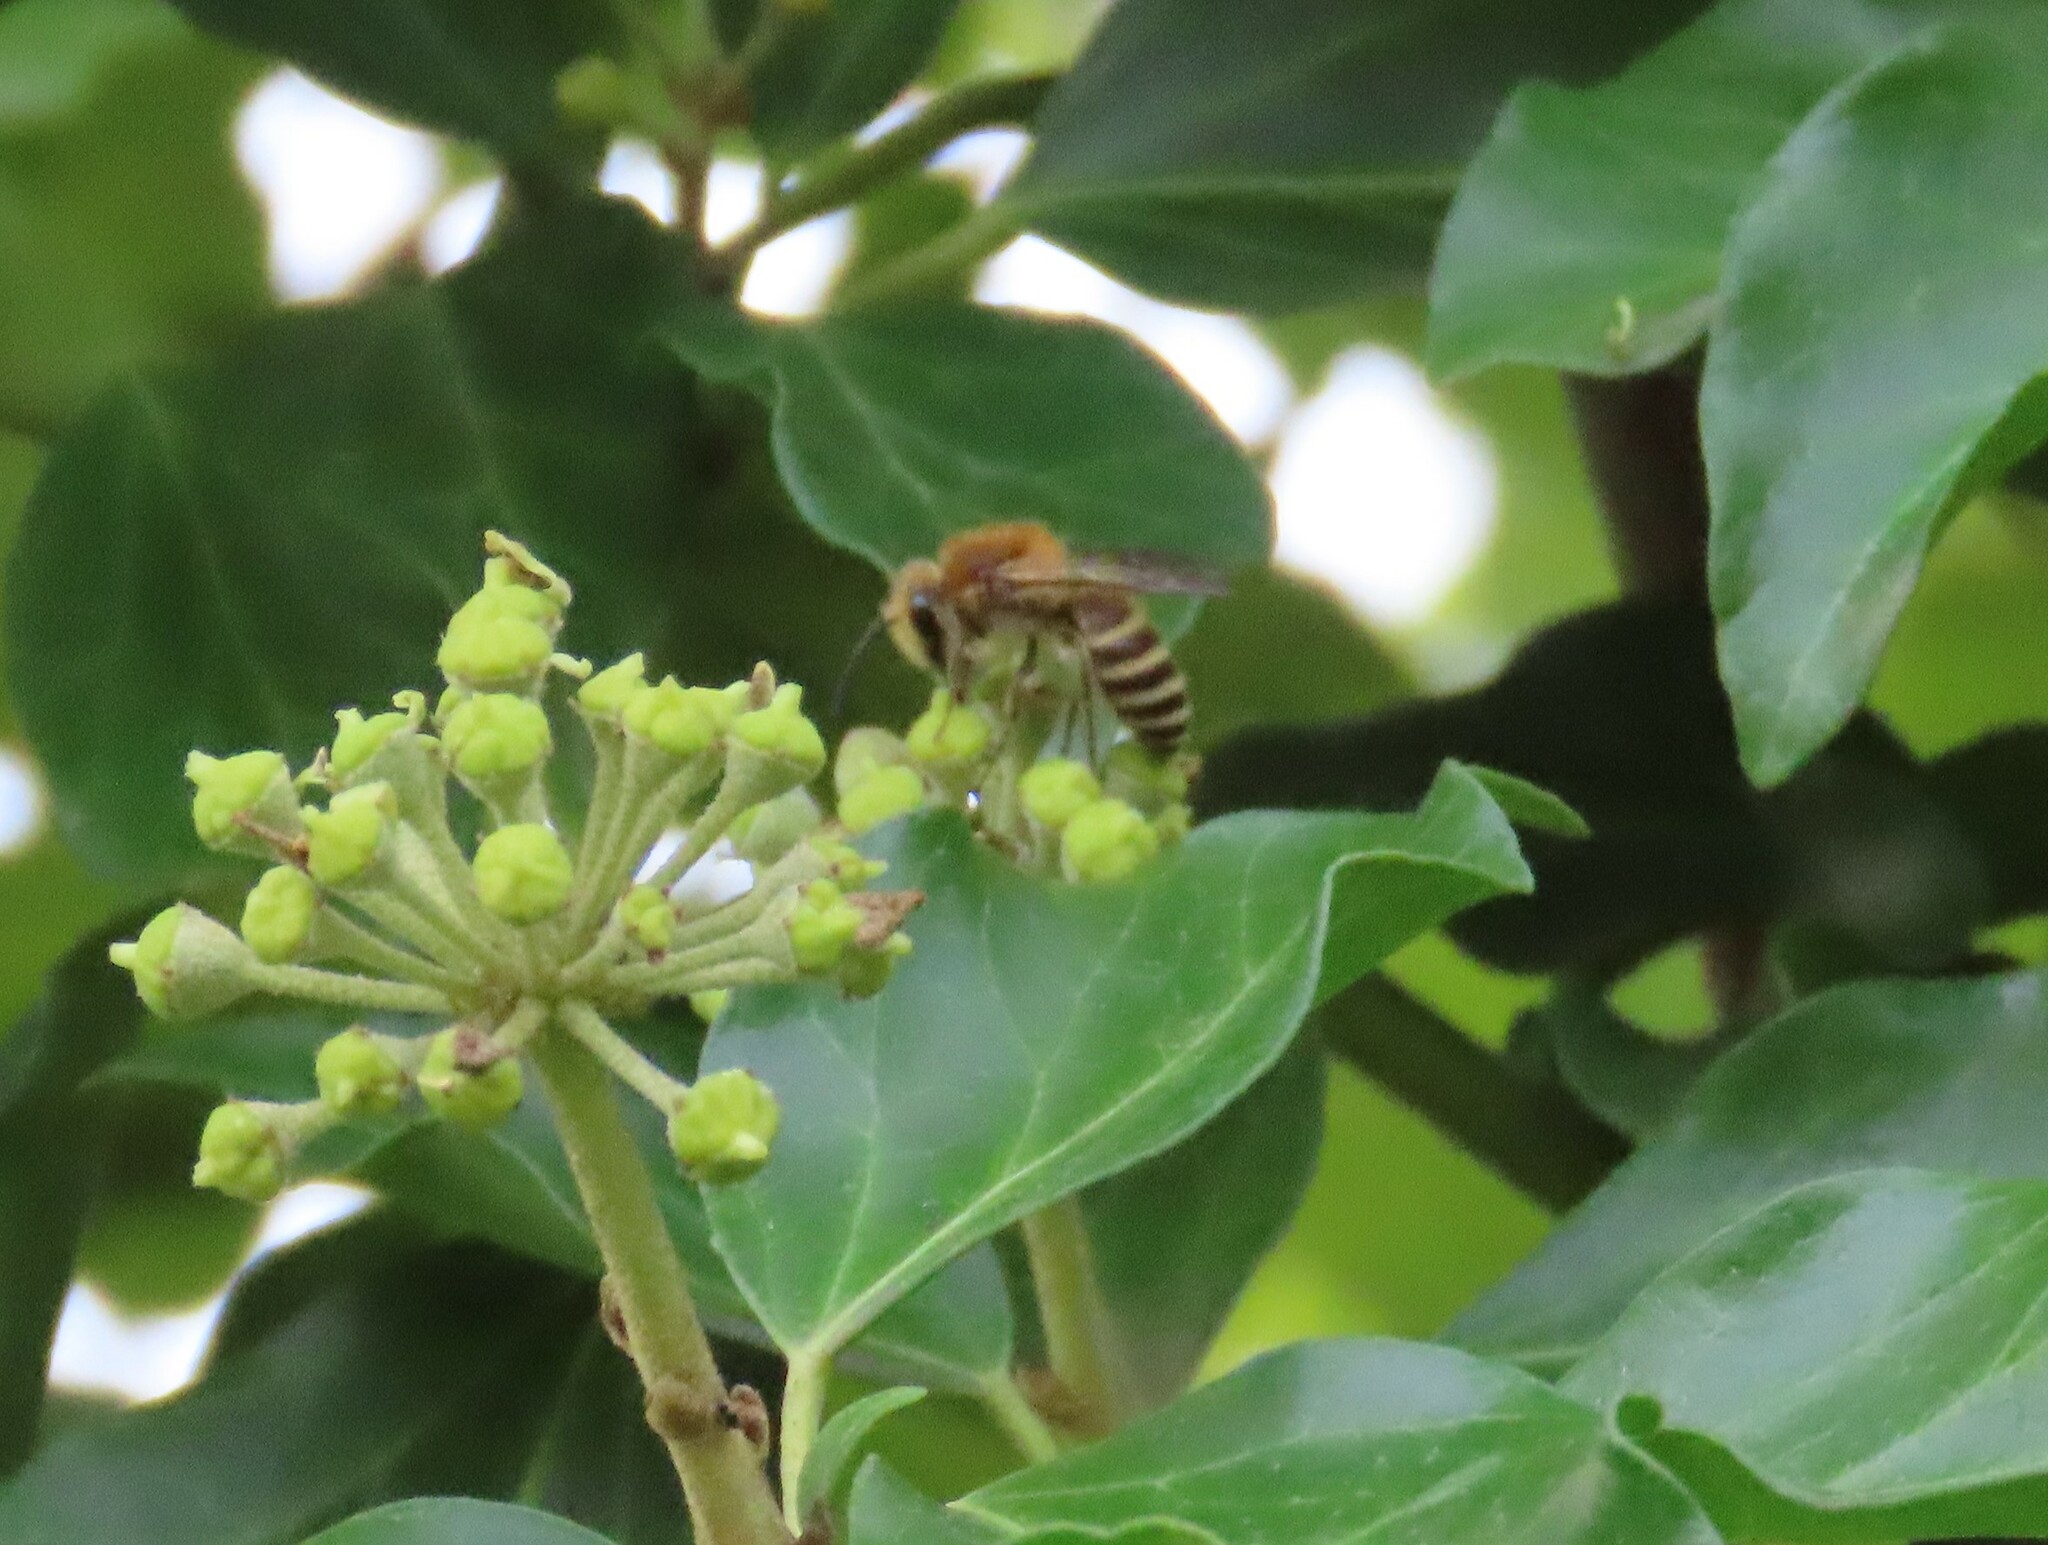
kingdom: Animalia
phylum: Arthropoda
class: Insecta
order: Hymenoptera
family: Colletidae
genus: Colletes
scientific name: Colletes hederae
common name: Ivy bee
